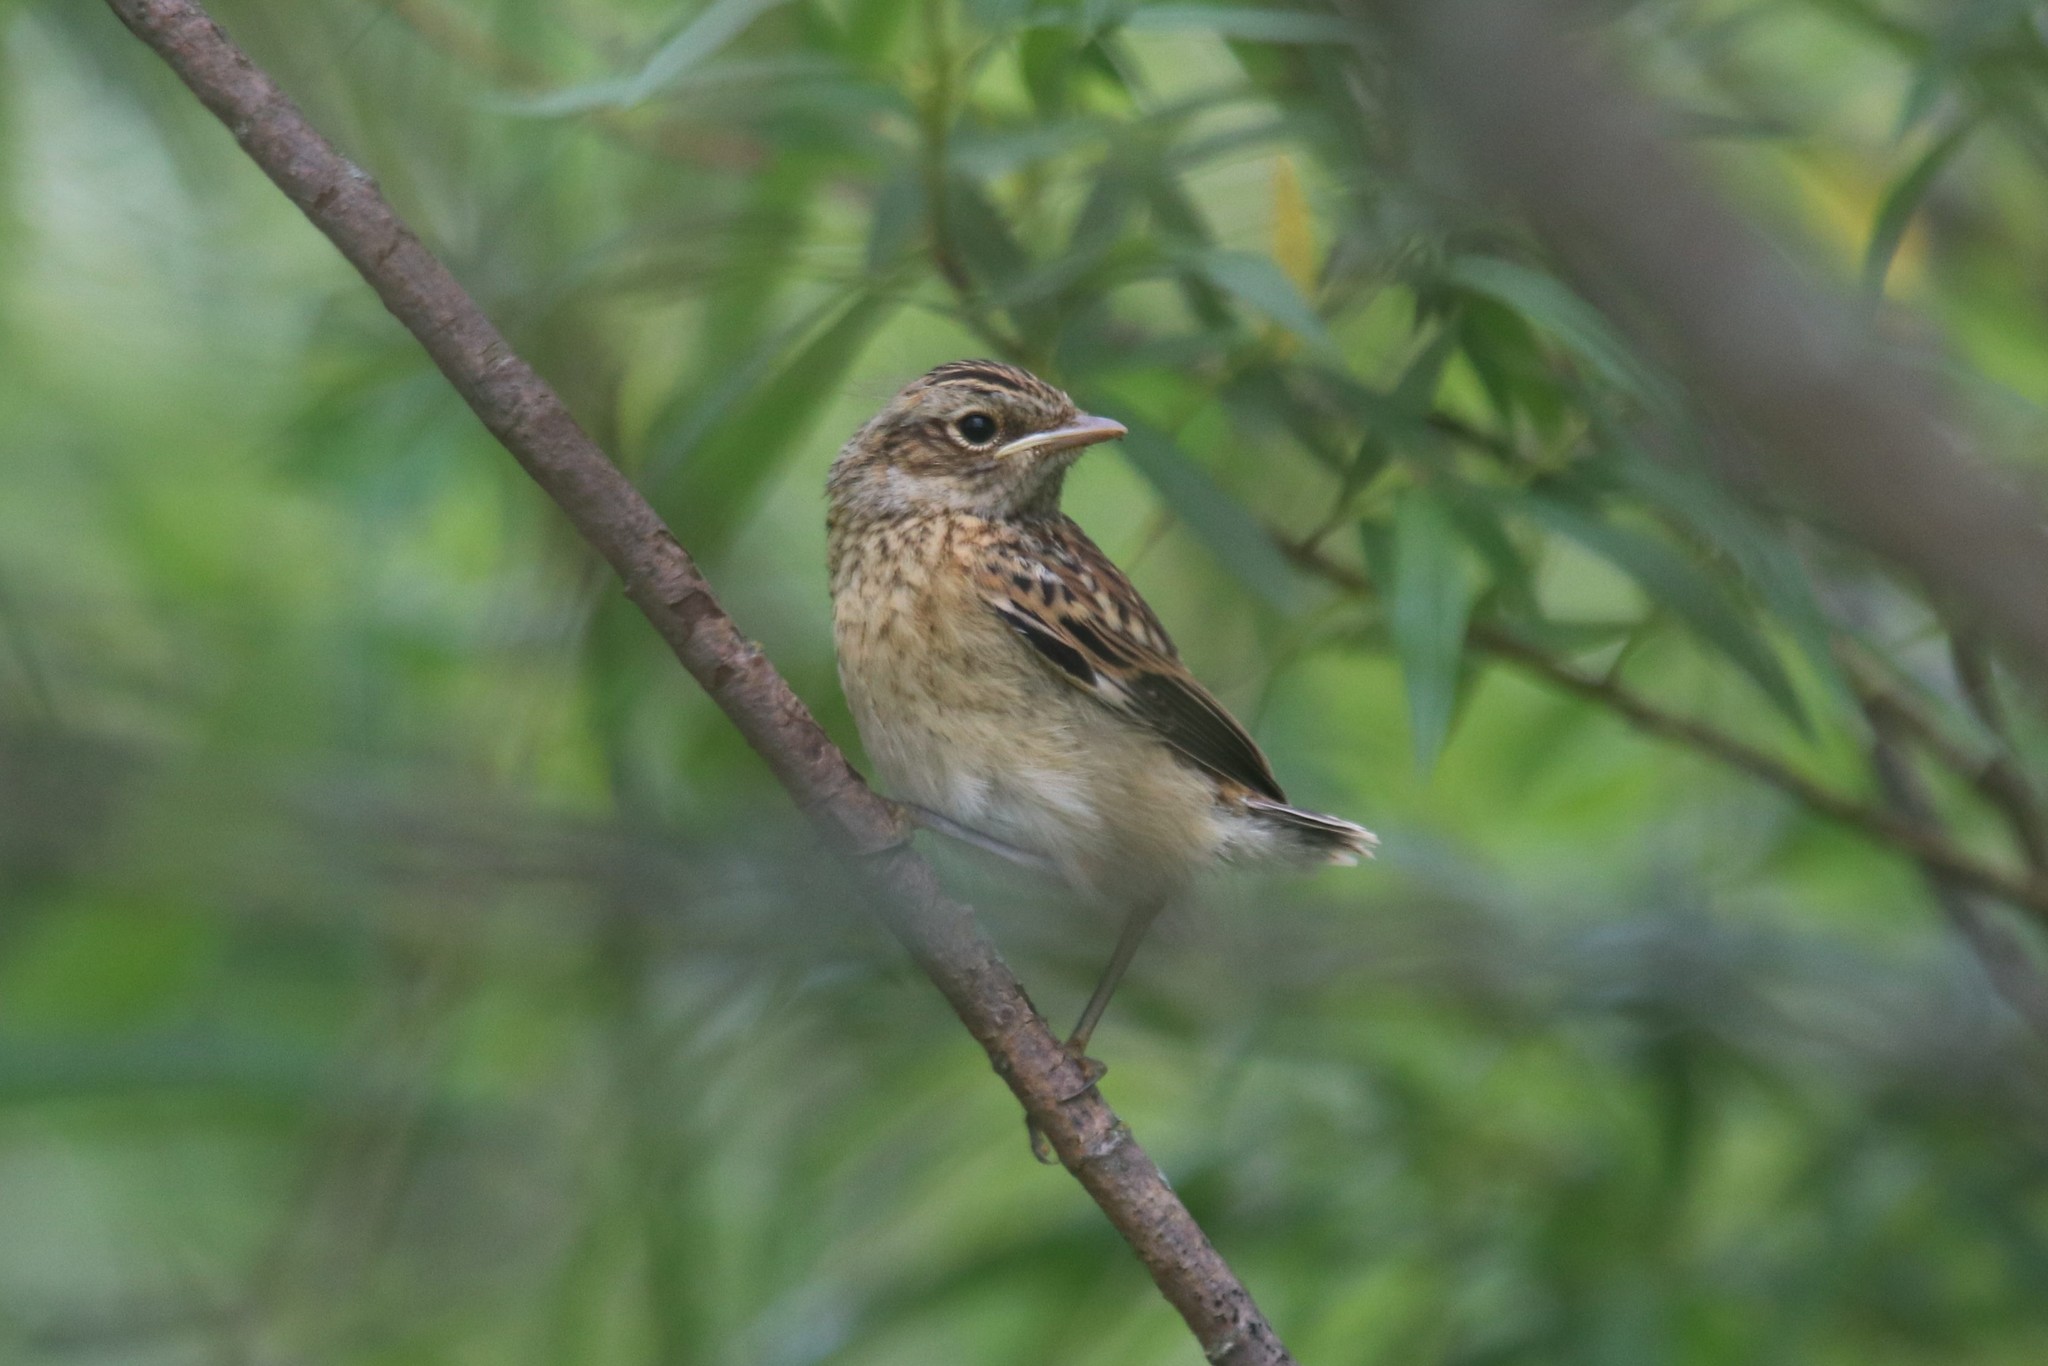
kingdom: Animalia
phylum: Chordata
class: Aves
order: Passeriformes
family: Muscicapidae
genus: Saxicola
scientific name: Saxicola rubetra
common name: Whinchat
